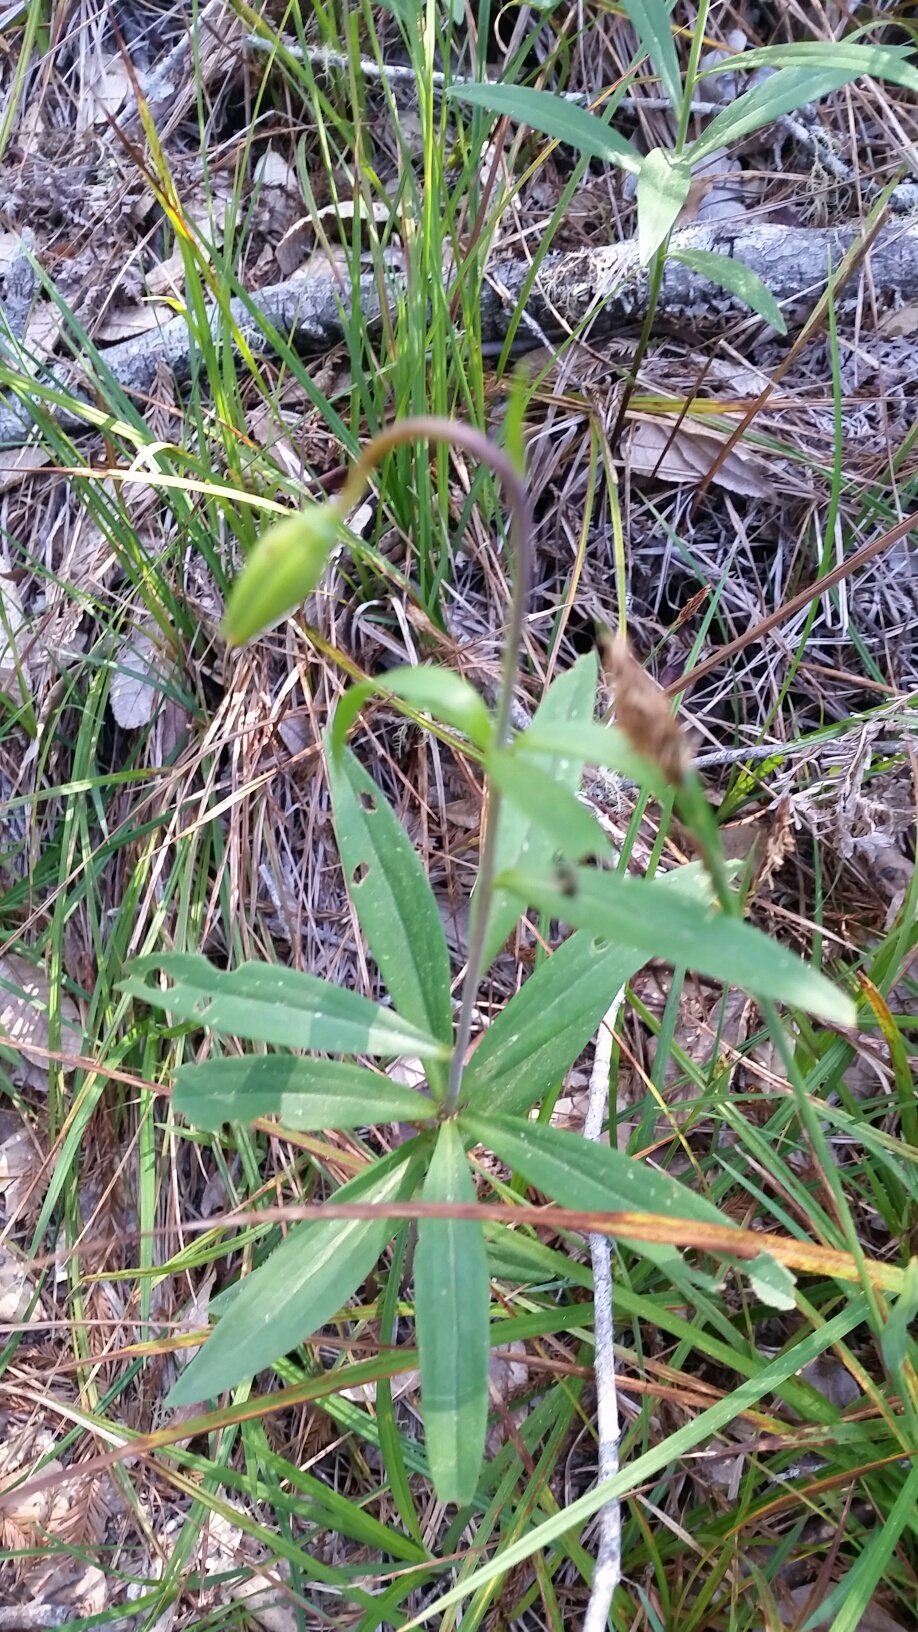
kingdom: Plantae
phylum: Tracheophyta
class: Liliopsida
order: Liliales
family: Liliaceae
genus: Lilium
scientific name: Lilium maritimum
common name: Coastal lily
